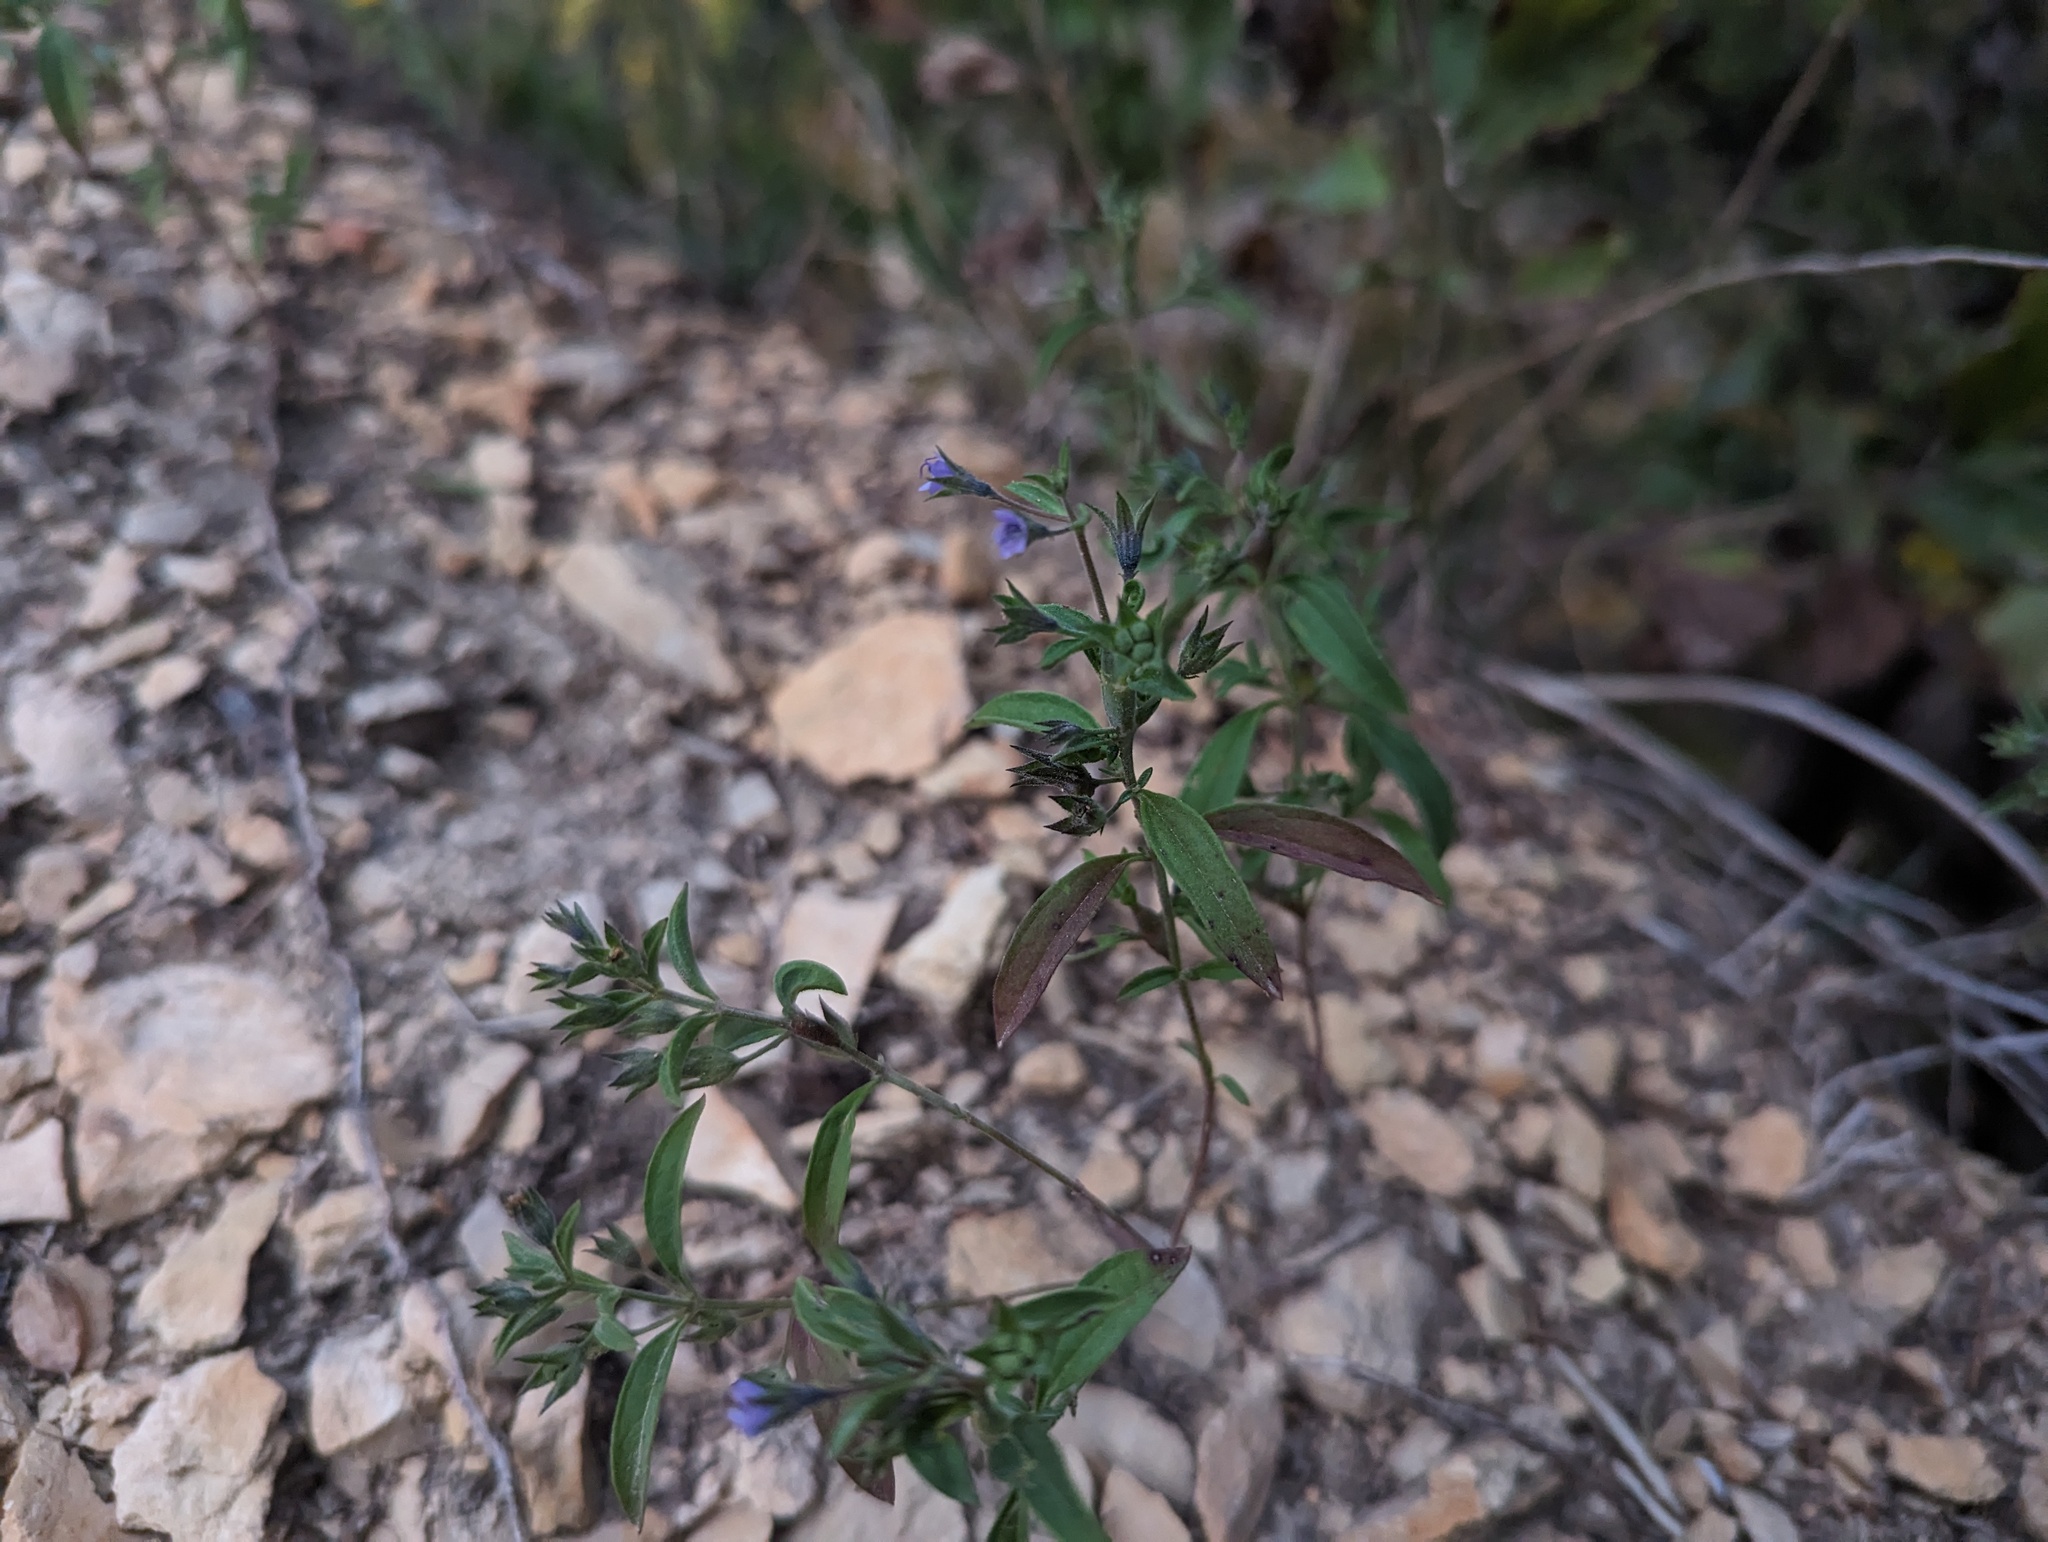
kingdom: Plantae
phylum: Tracheophyta
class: Magnoliopsida
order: Lamiales
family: Lamiaceae
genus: Trichostema
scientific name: Trichostema brachiatum
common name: False pennyroyal
